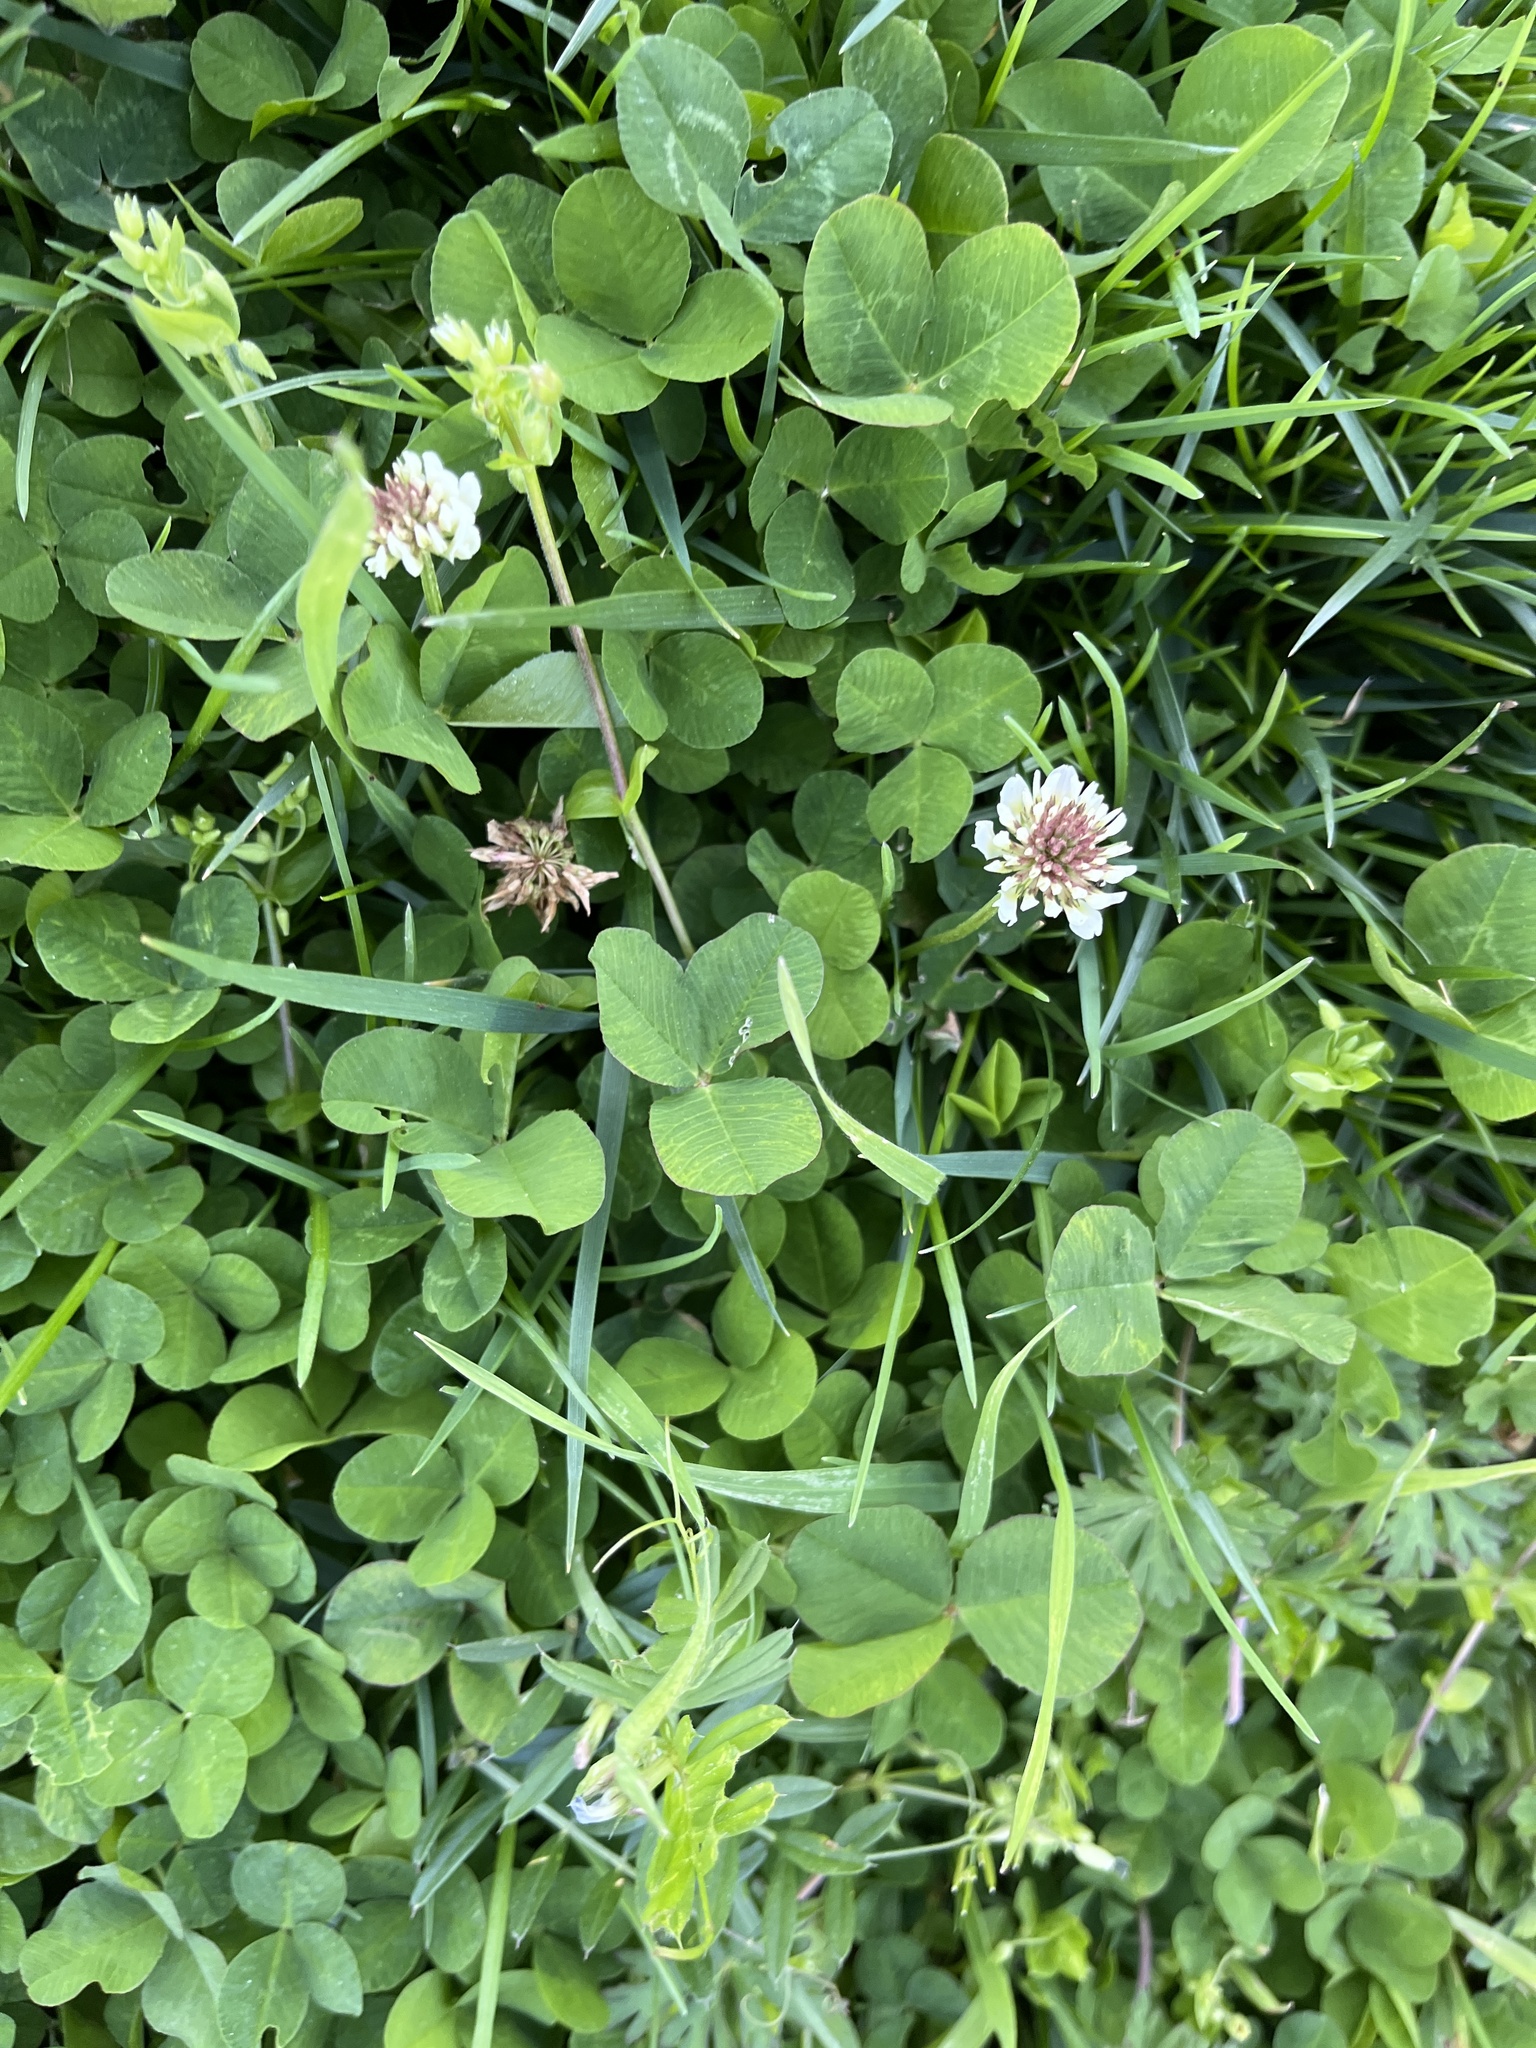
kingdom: Plantae
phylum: Tracheophyta
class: Magnoliopsida
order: Fabales
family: Fabaceae
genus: Trifolium
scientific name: Trifolium repens
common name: White clover
